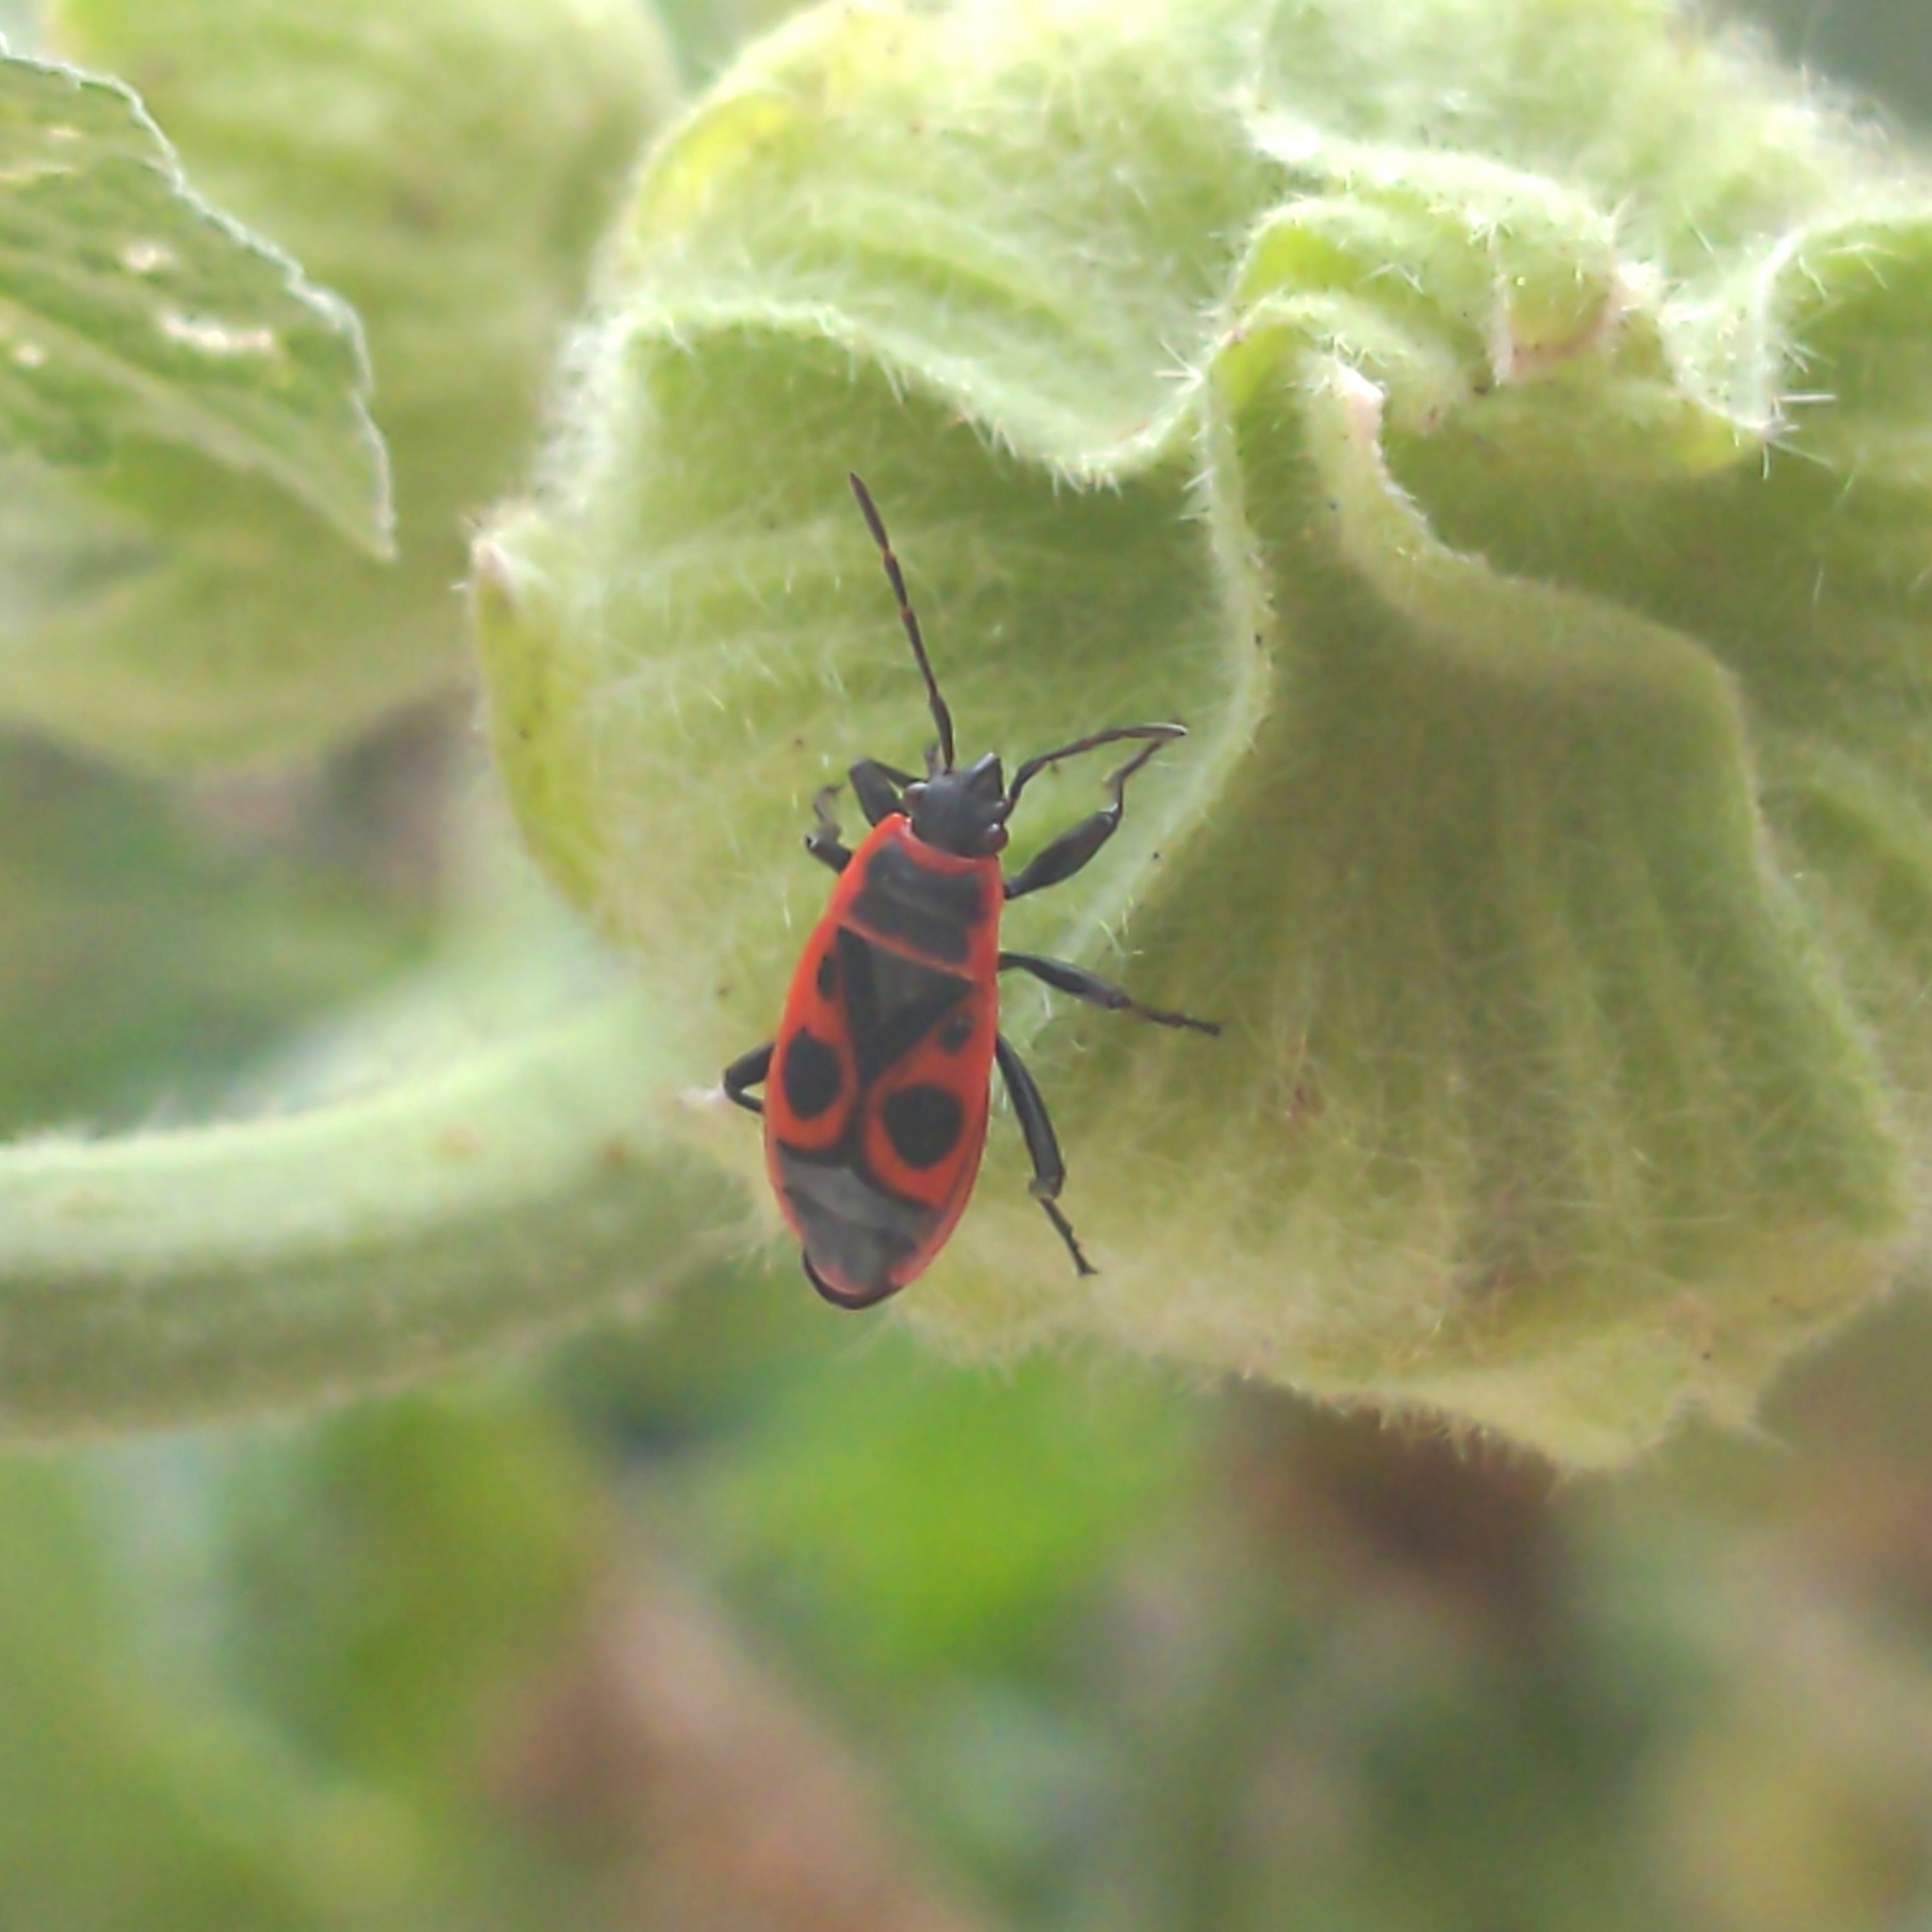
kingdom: Animalia
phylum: Arthropoda
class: Insecta
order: Hemiptera
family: Pyrrhocoridae
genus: Pyrrhocoris
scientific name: Pyrrhocoris apterus
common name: Firebug
